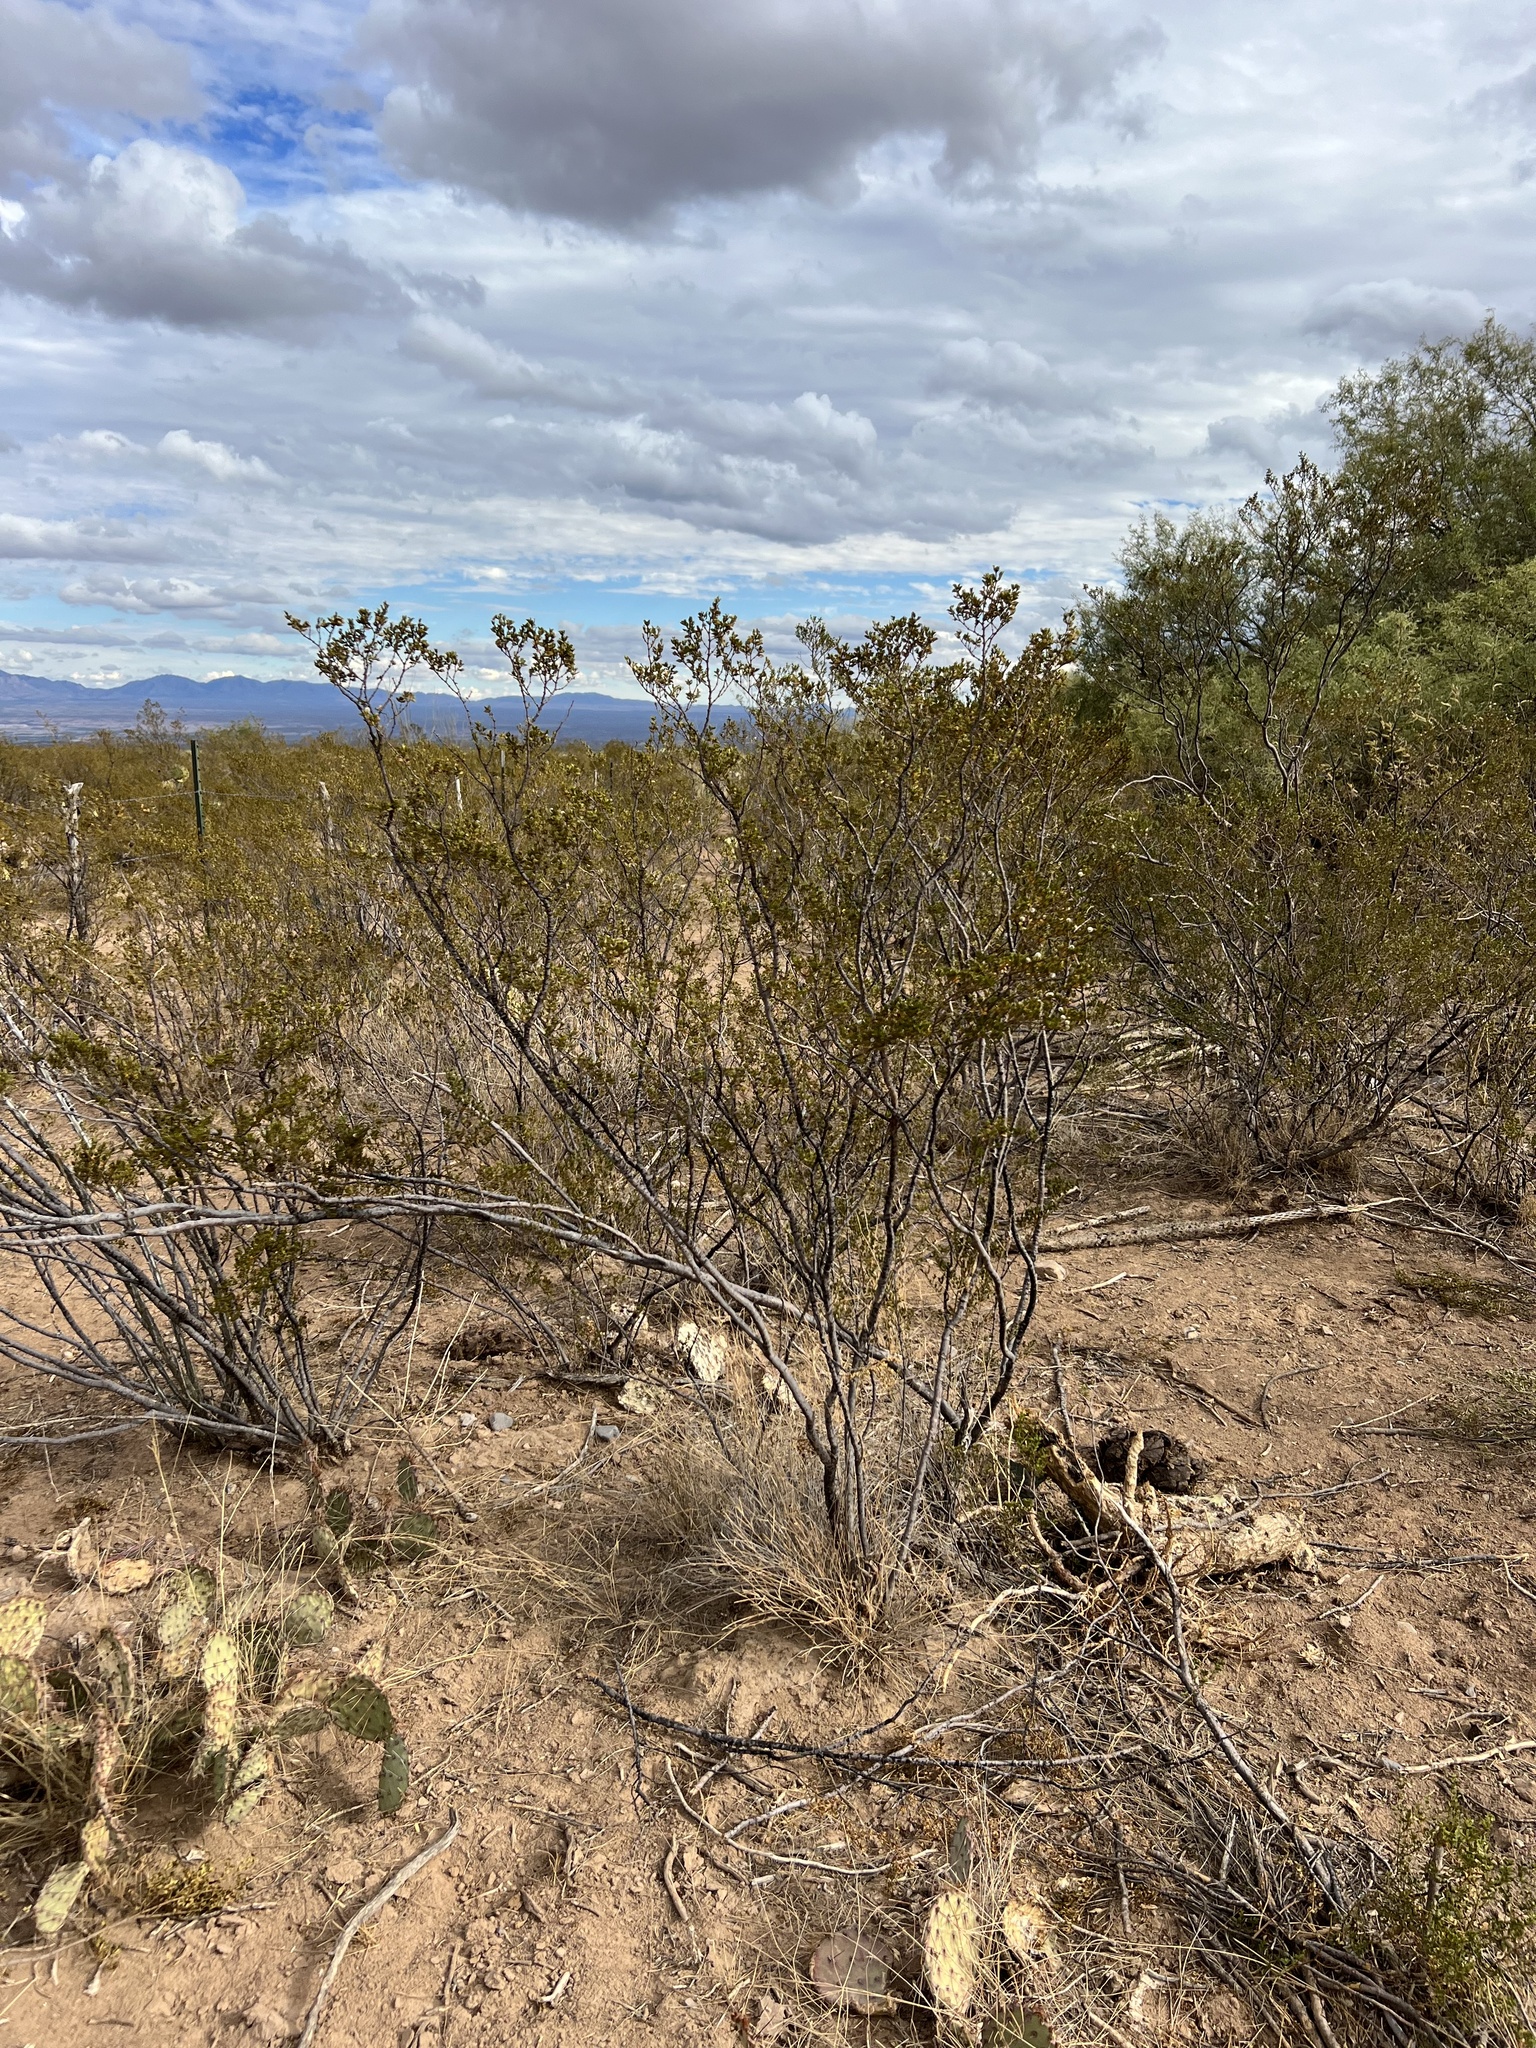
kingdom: Plantae
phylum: Tracheophyta
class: Magnoliopsida
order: Zygophyllales
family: Zygophyllaceae
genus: Larrea
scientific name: Larrea tridentata
